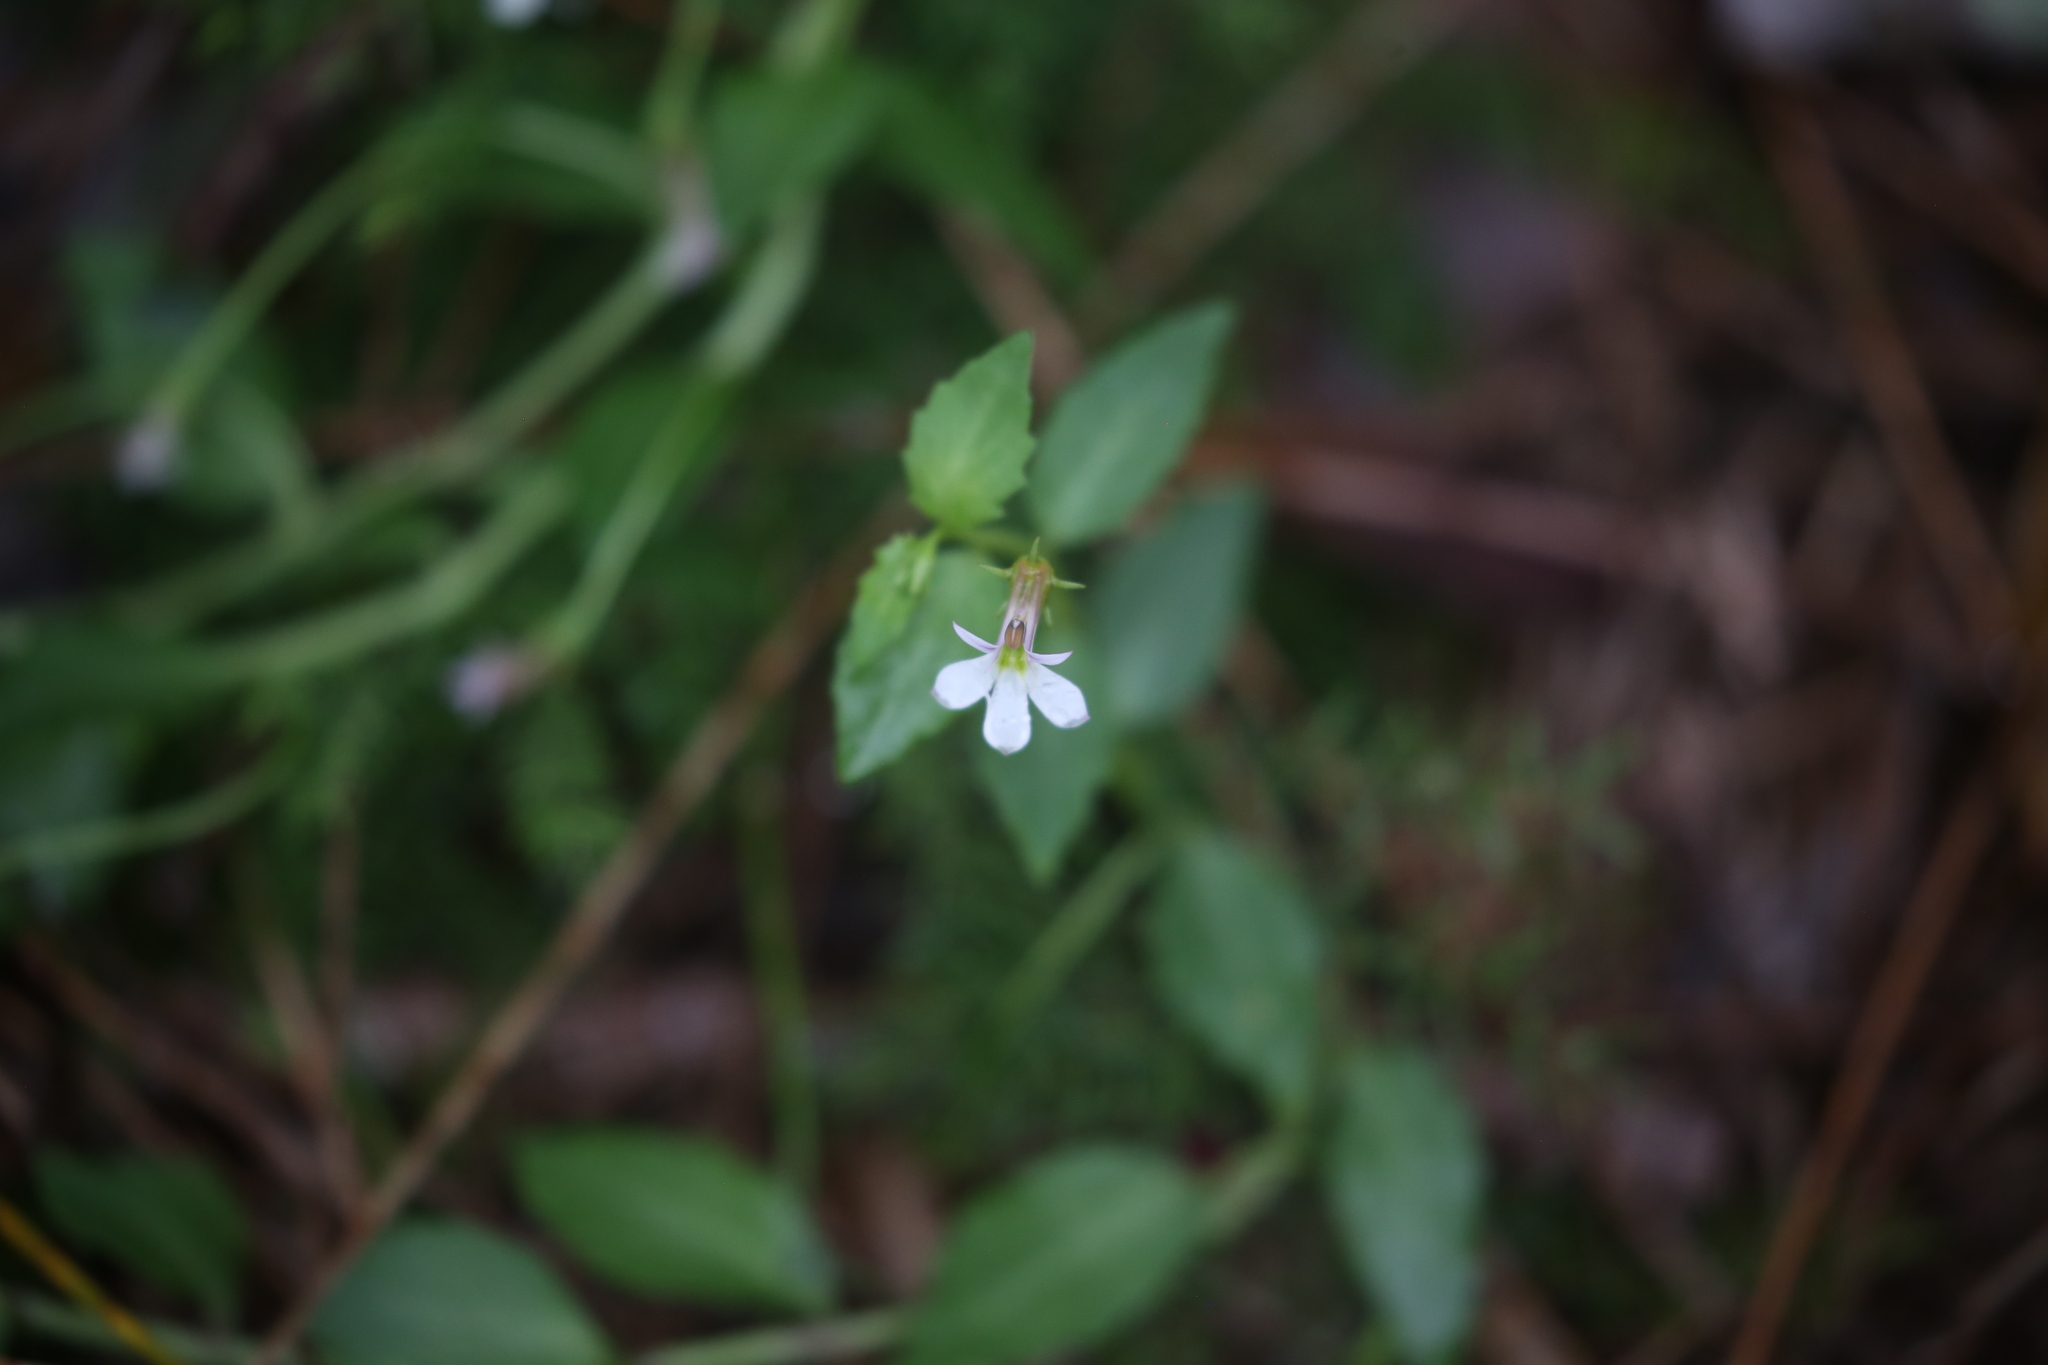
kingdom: Plantae
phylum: Tracheophyta
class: Magnoliopsida
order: Asterales
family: Campanulaceae
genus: Lobelia
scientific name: Lobelia purpurascens
